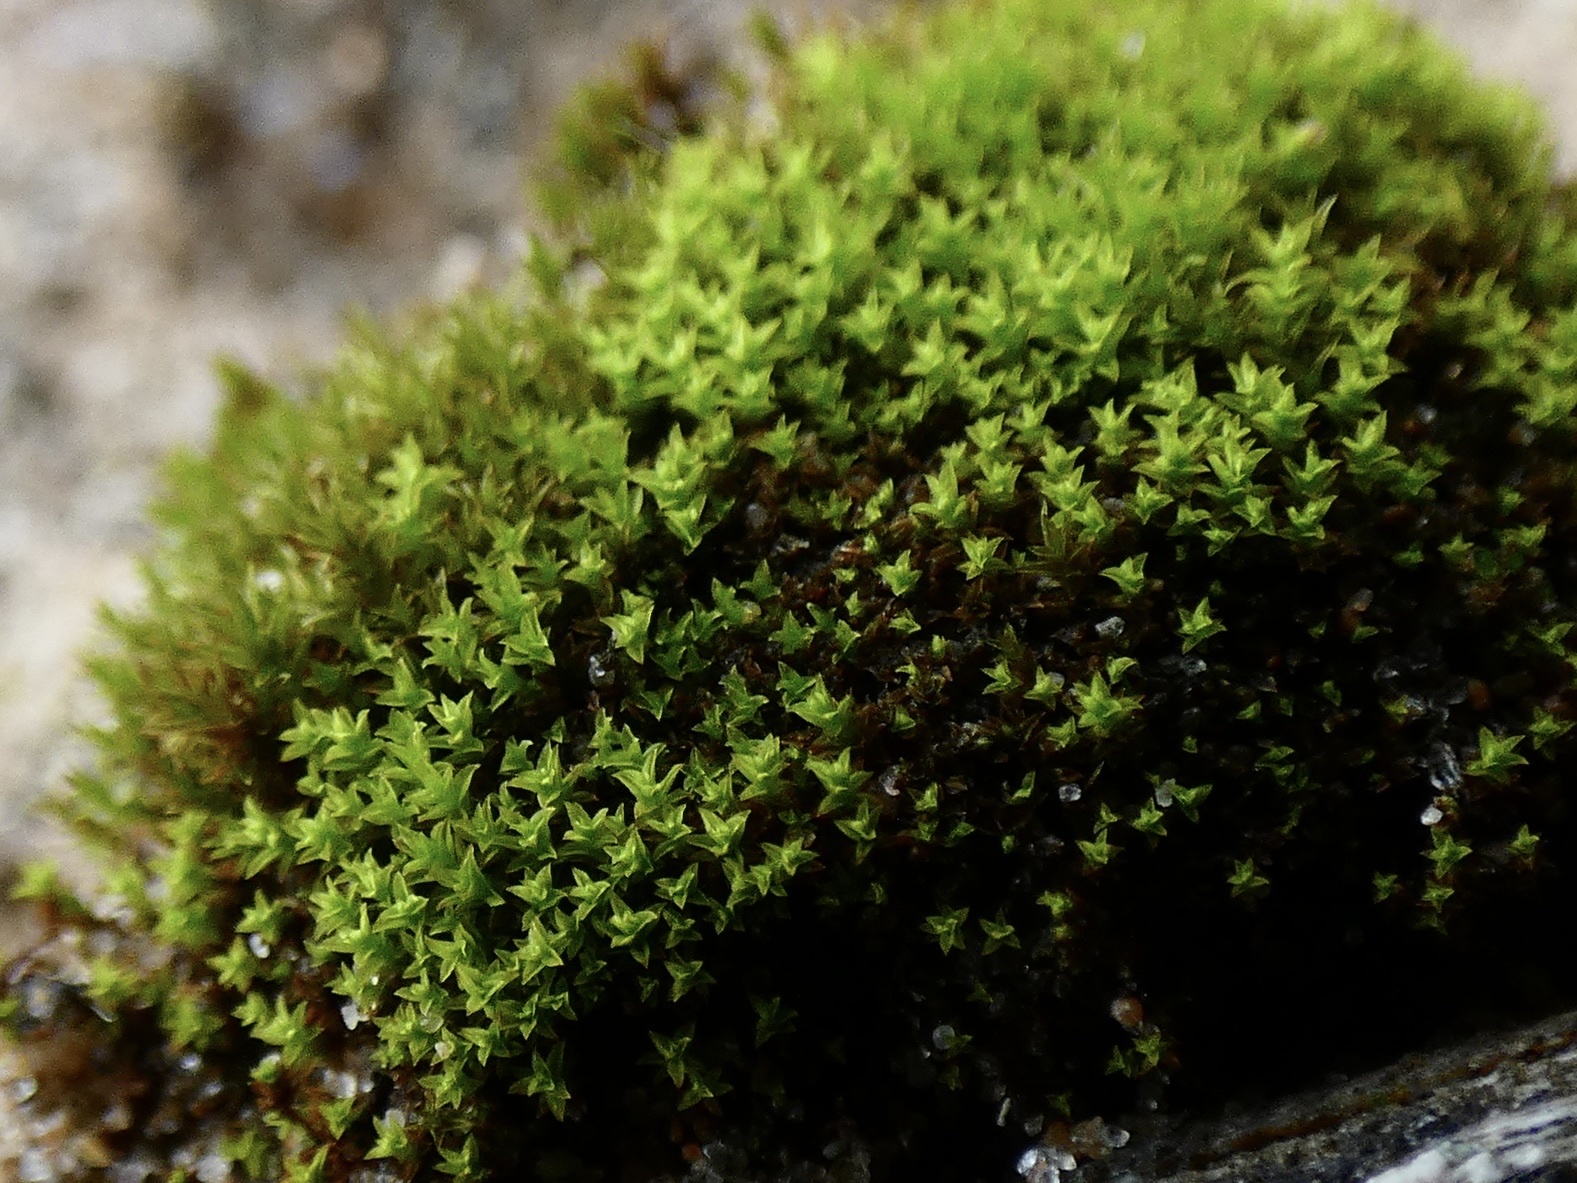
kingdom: Plantae
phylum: Bryophyta
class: Bryopsida
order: Pottiales
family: Pottiaceae
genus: Streblotrichum
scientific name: Streblotrichum convolutum
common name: Lesser bird's-claw beard-moss
